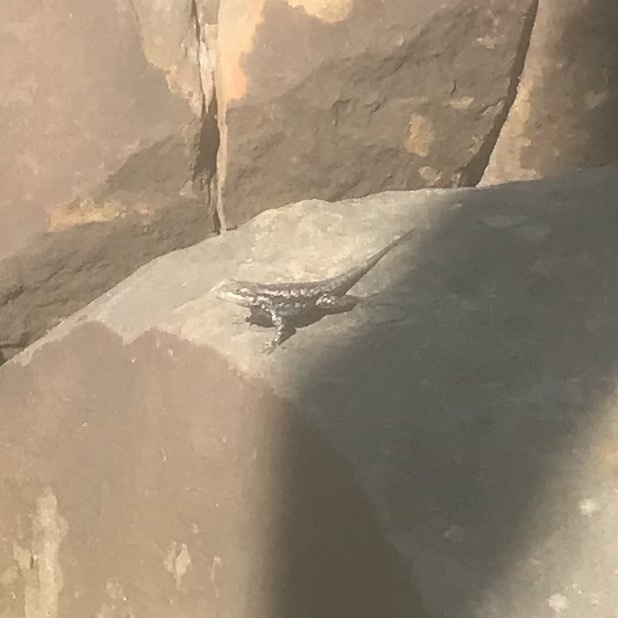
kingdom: Animalia
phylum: Chordata
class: Squamata
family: Phrynosomatidae
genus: Sceloporus
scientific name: Sceloporus olivaceus
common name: Texas spiny lizard
